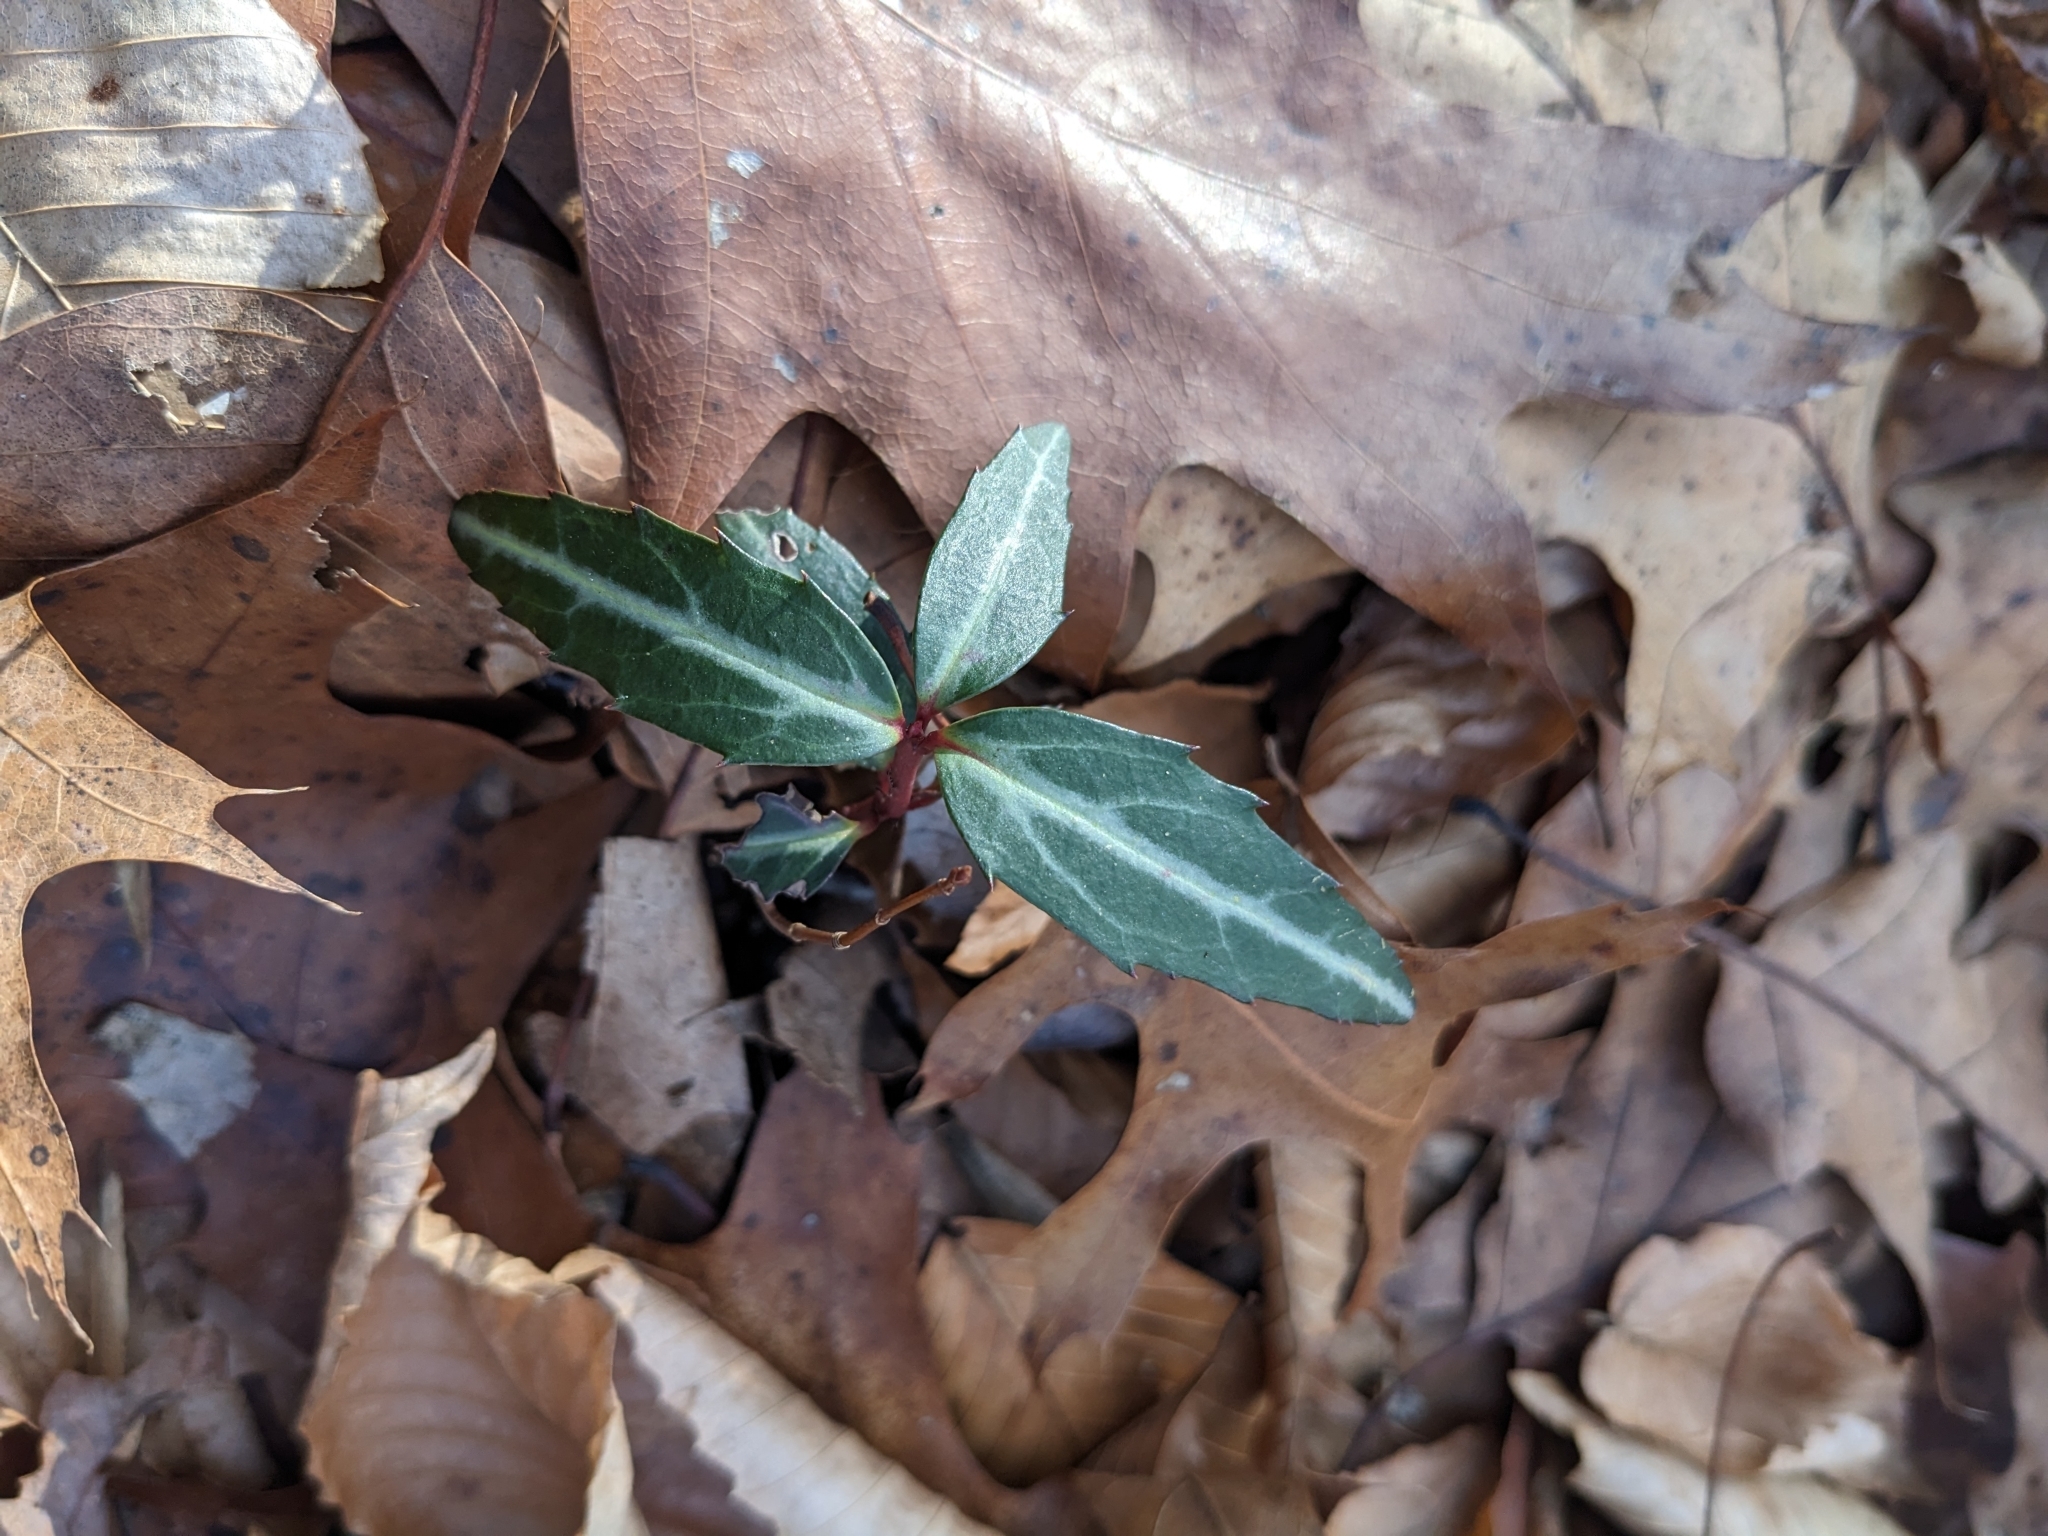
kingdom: Plantae
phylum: Tracheophyta
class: Magnoliopsida
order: Ericales
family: Ericaceae
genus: Chimaphila
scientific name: Chimaphila maculata
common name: Spotted pipsissewa
